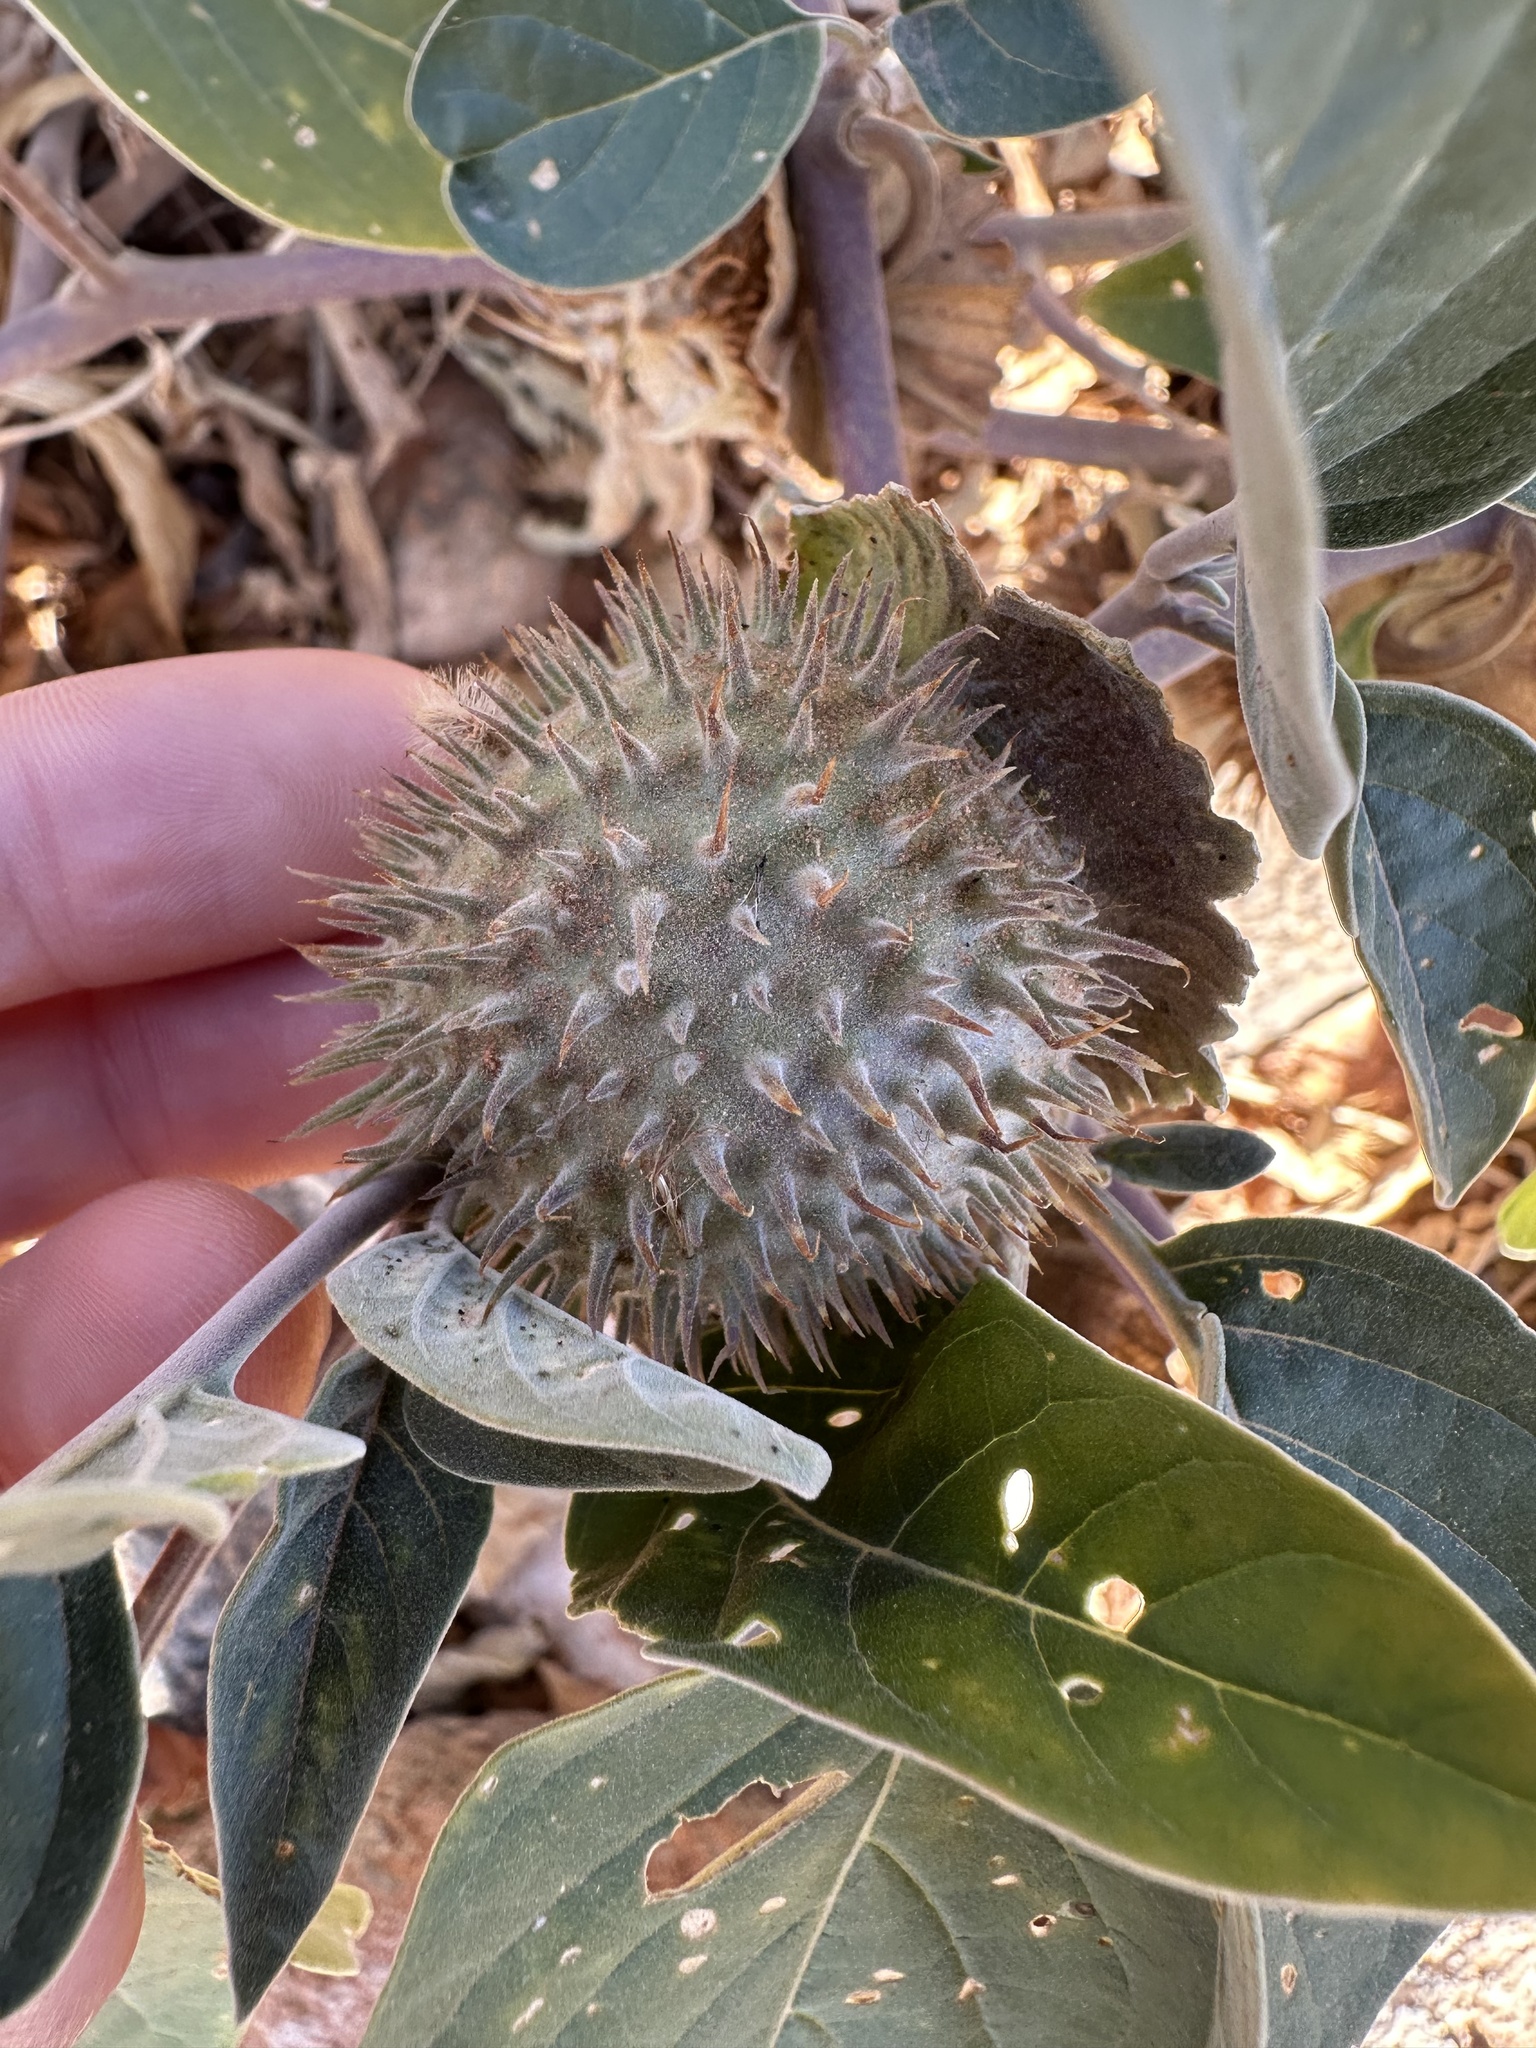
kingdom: Plantae
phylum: Tracheophyta
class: Magnoliopsida
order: Solanales
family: Solanaceae
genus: Datura
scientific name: Datura wrightii
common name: Sacred thorn-apple
